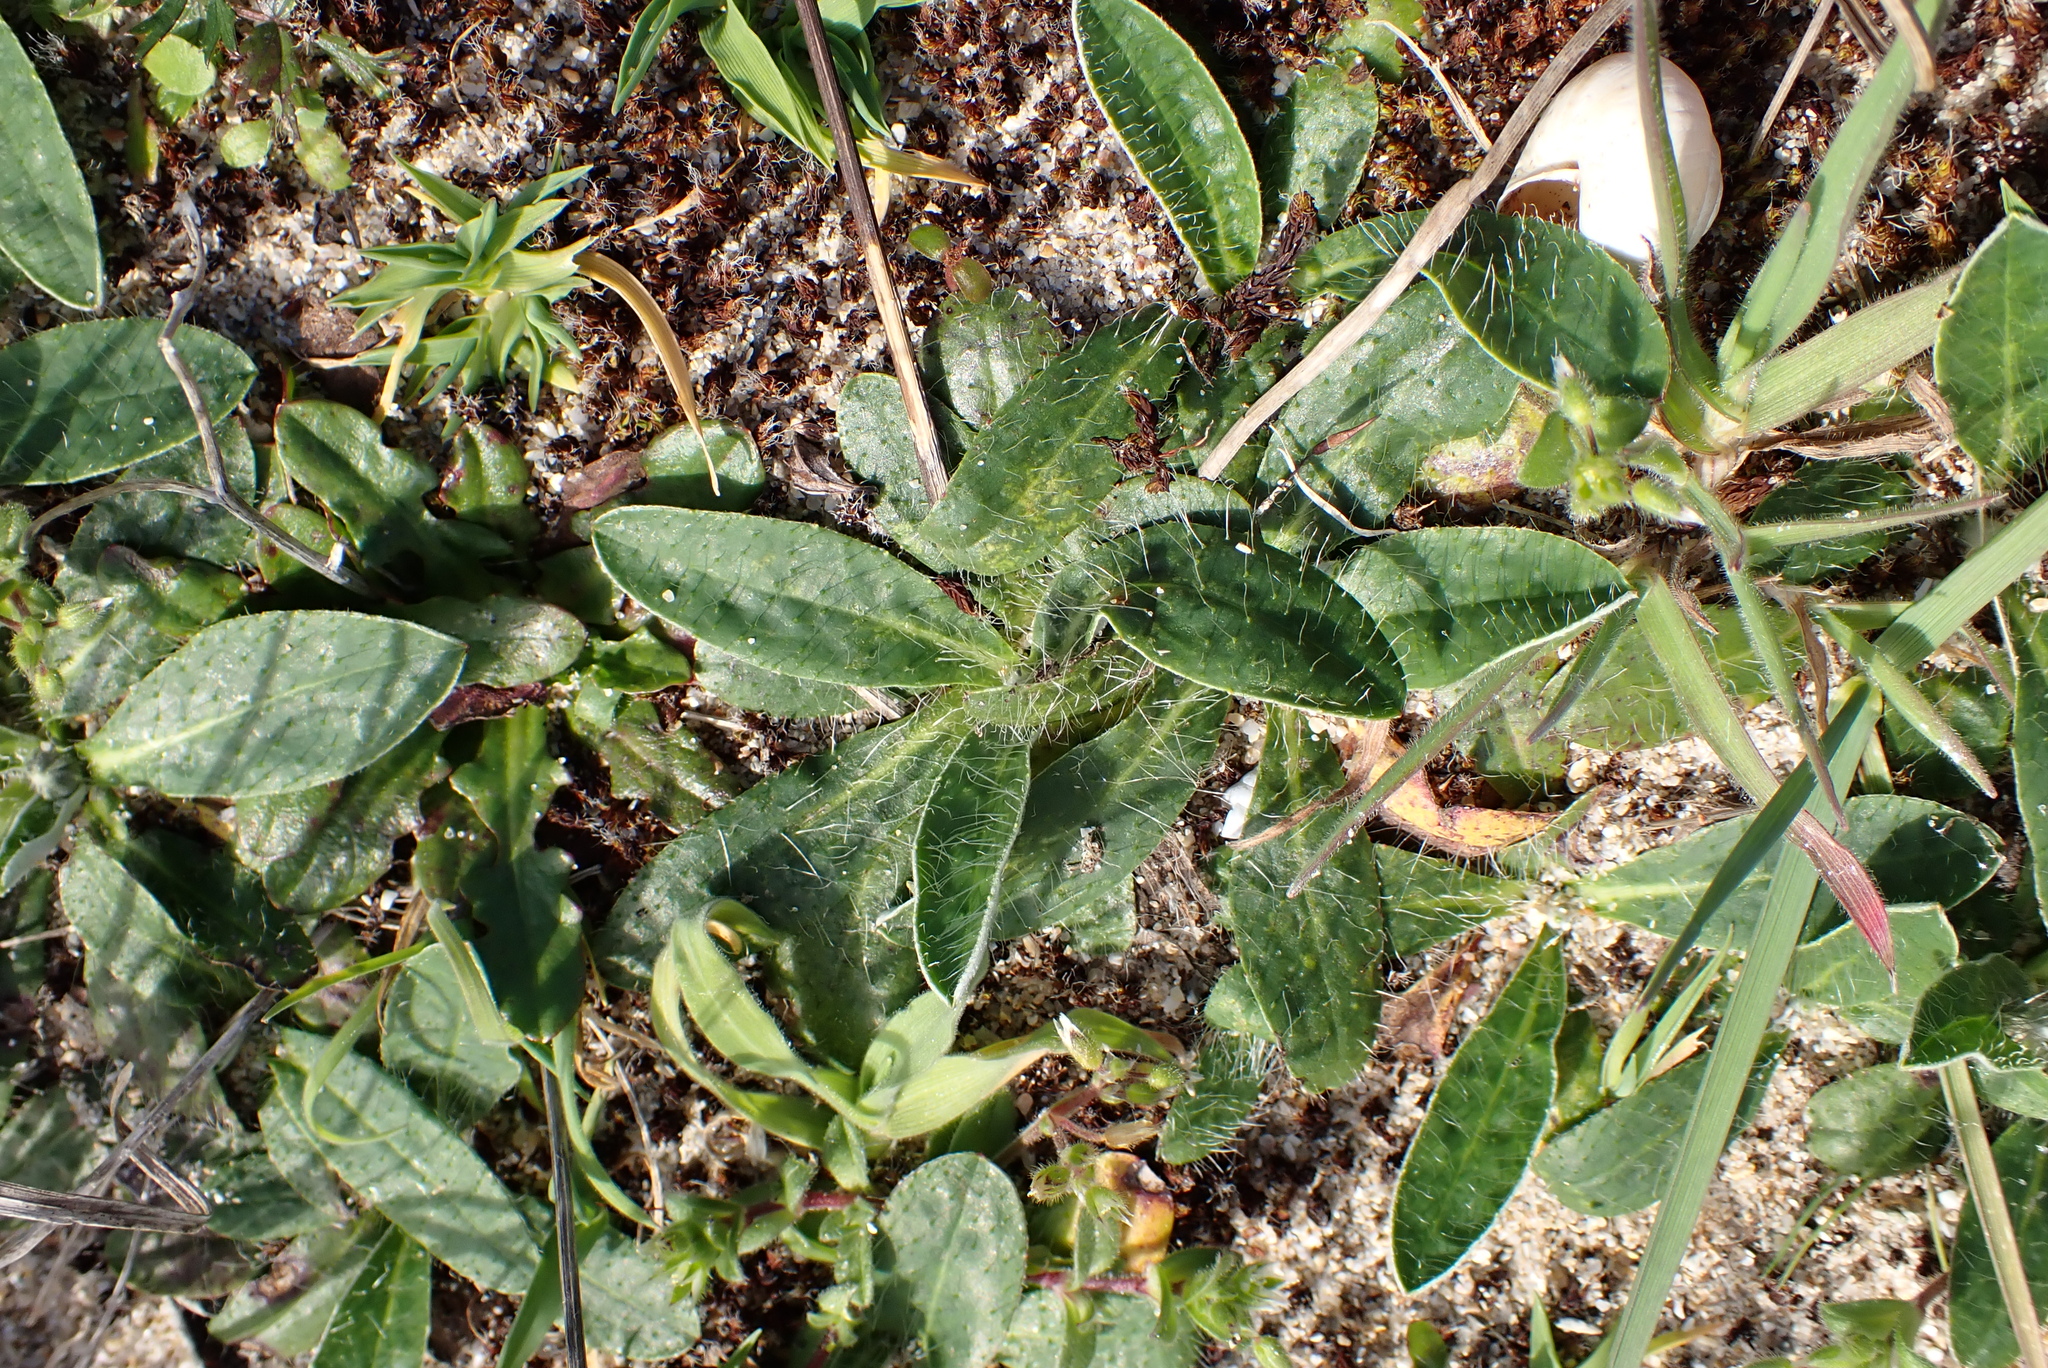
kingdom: Plantae
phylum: Tracheophyta
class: Magnoliopsida
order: Asterales
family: Asteraceae
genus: Pilosella
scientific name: Pilosella officinarum
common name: Mouse-ear hawkweed
